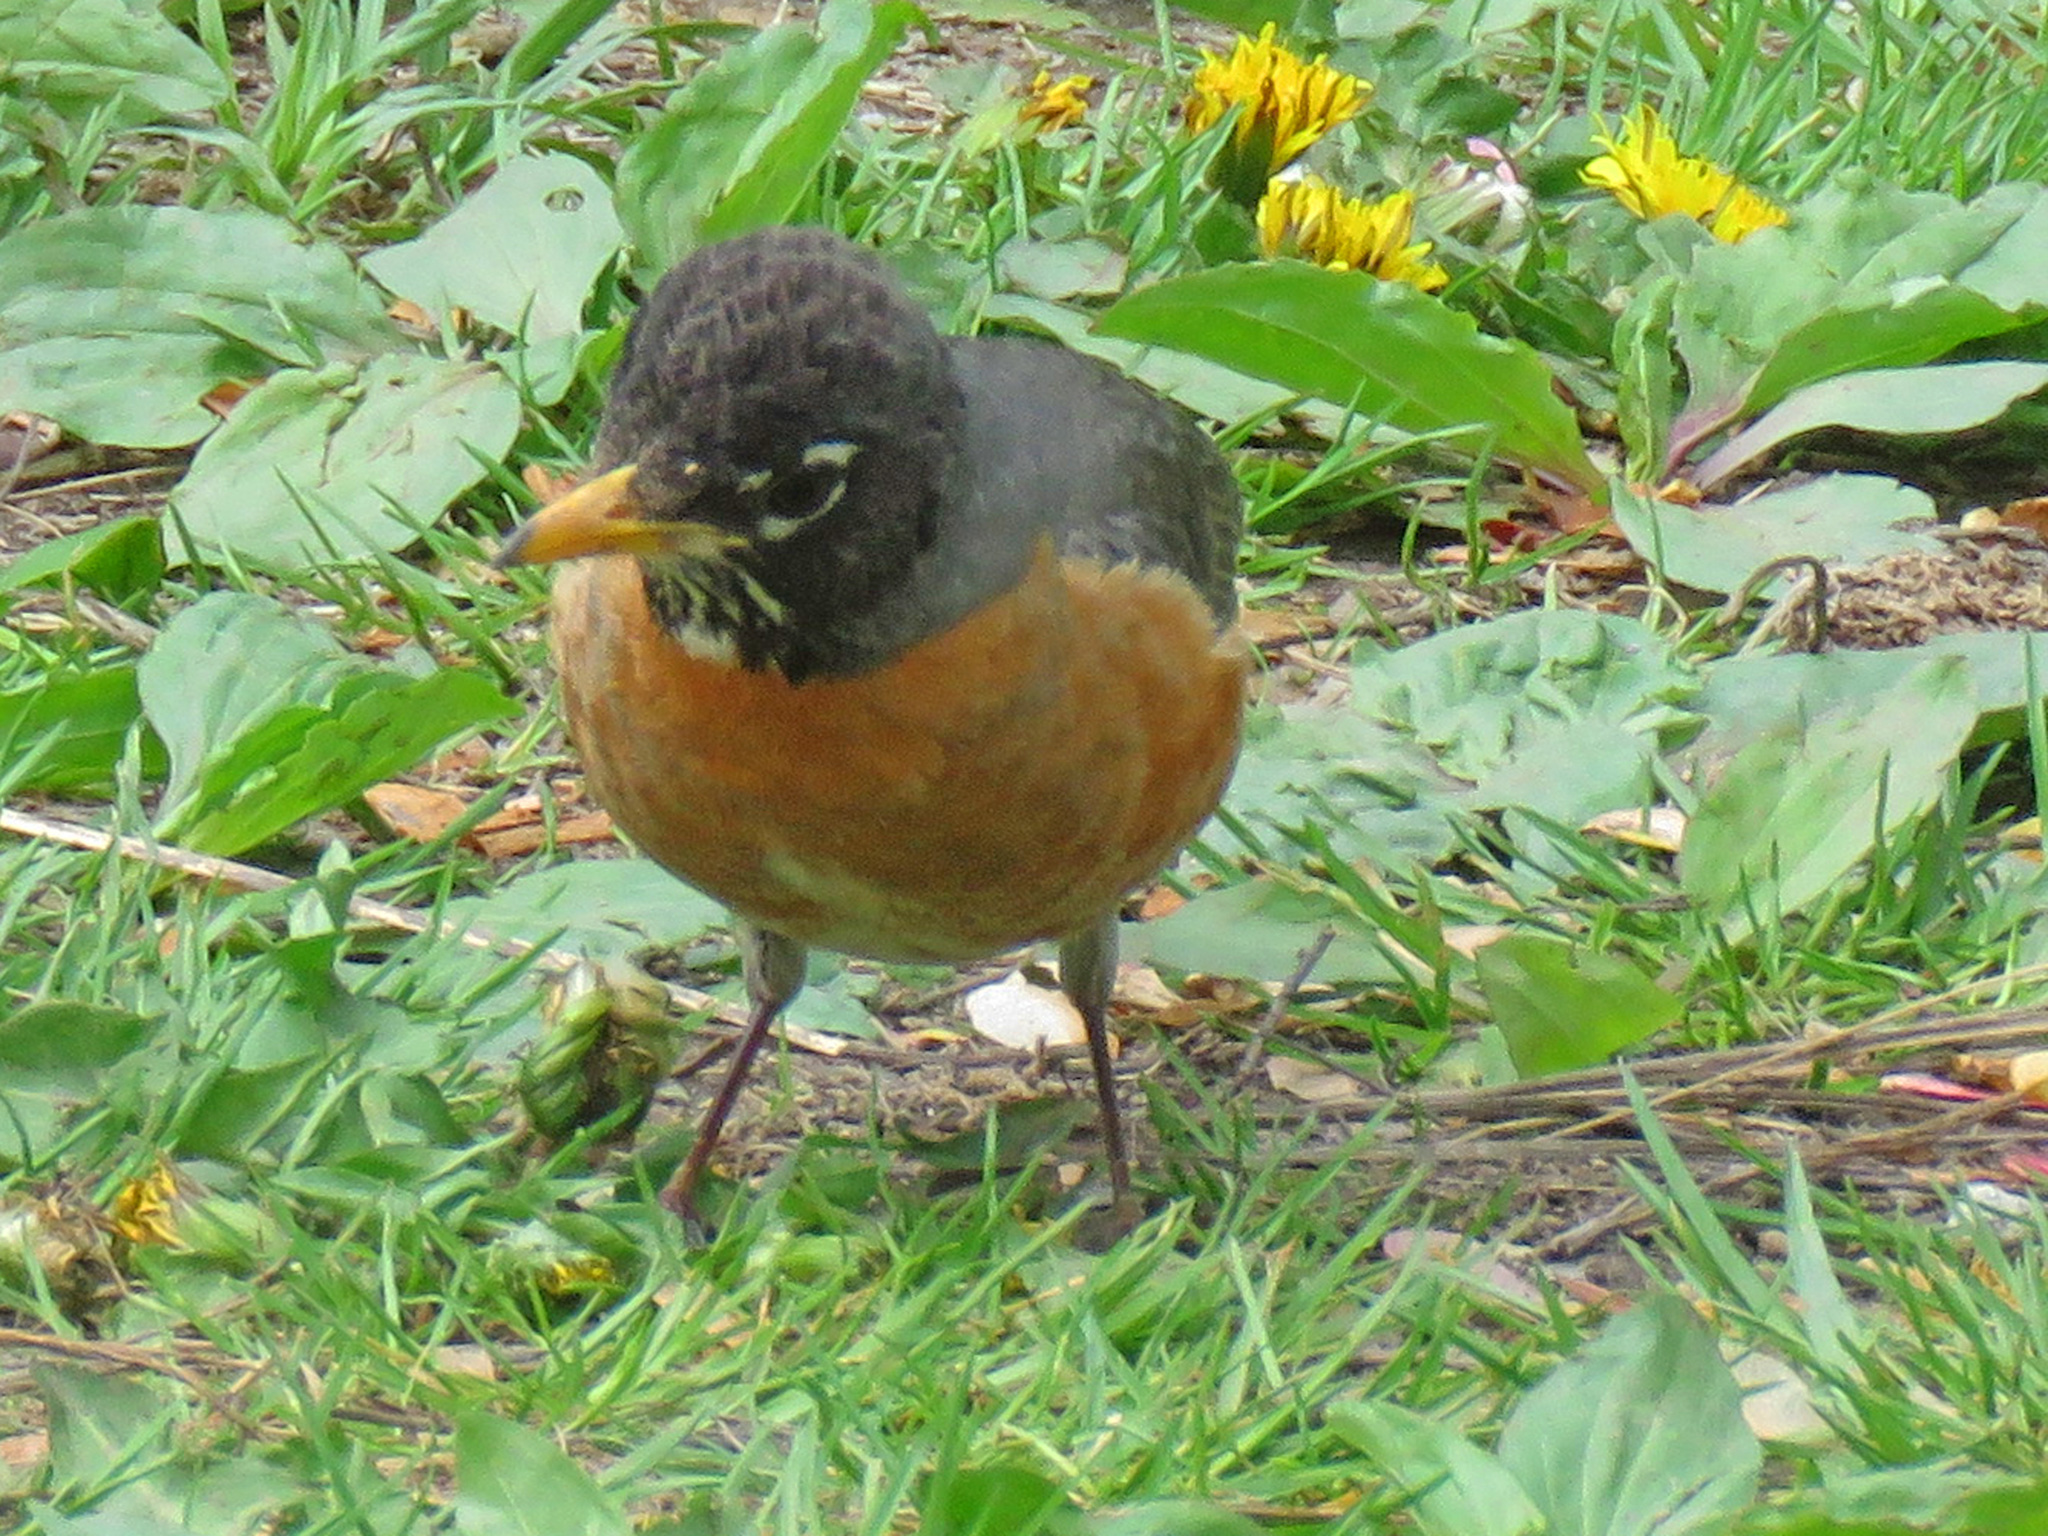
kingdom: Animalia
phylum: Chordata
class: Aves
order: Passeriformes
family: Turdidae
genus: Turdus
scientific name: Turdus migratorius
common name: American robin
